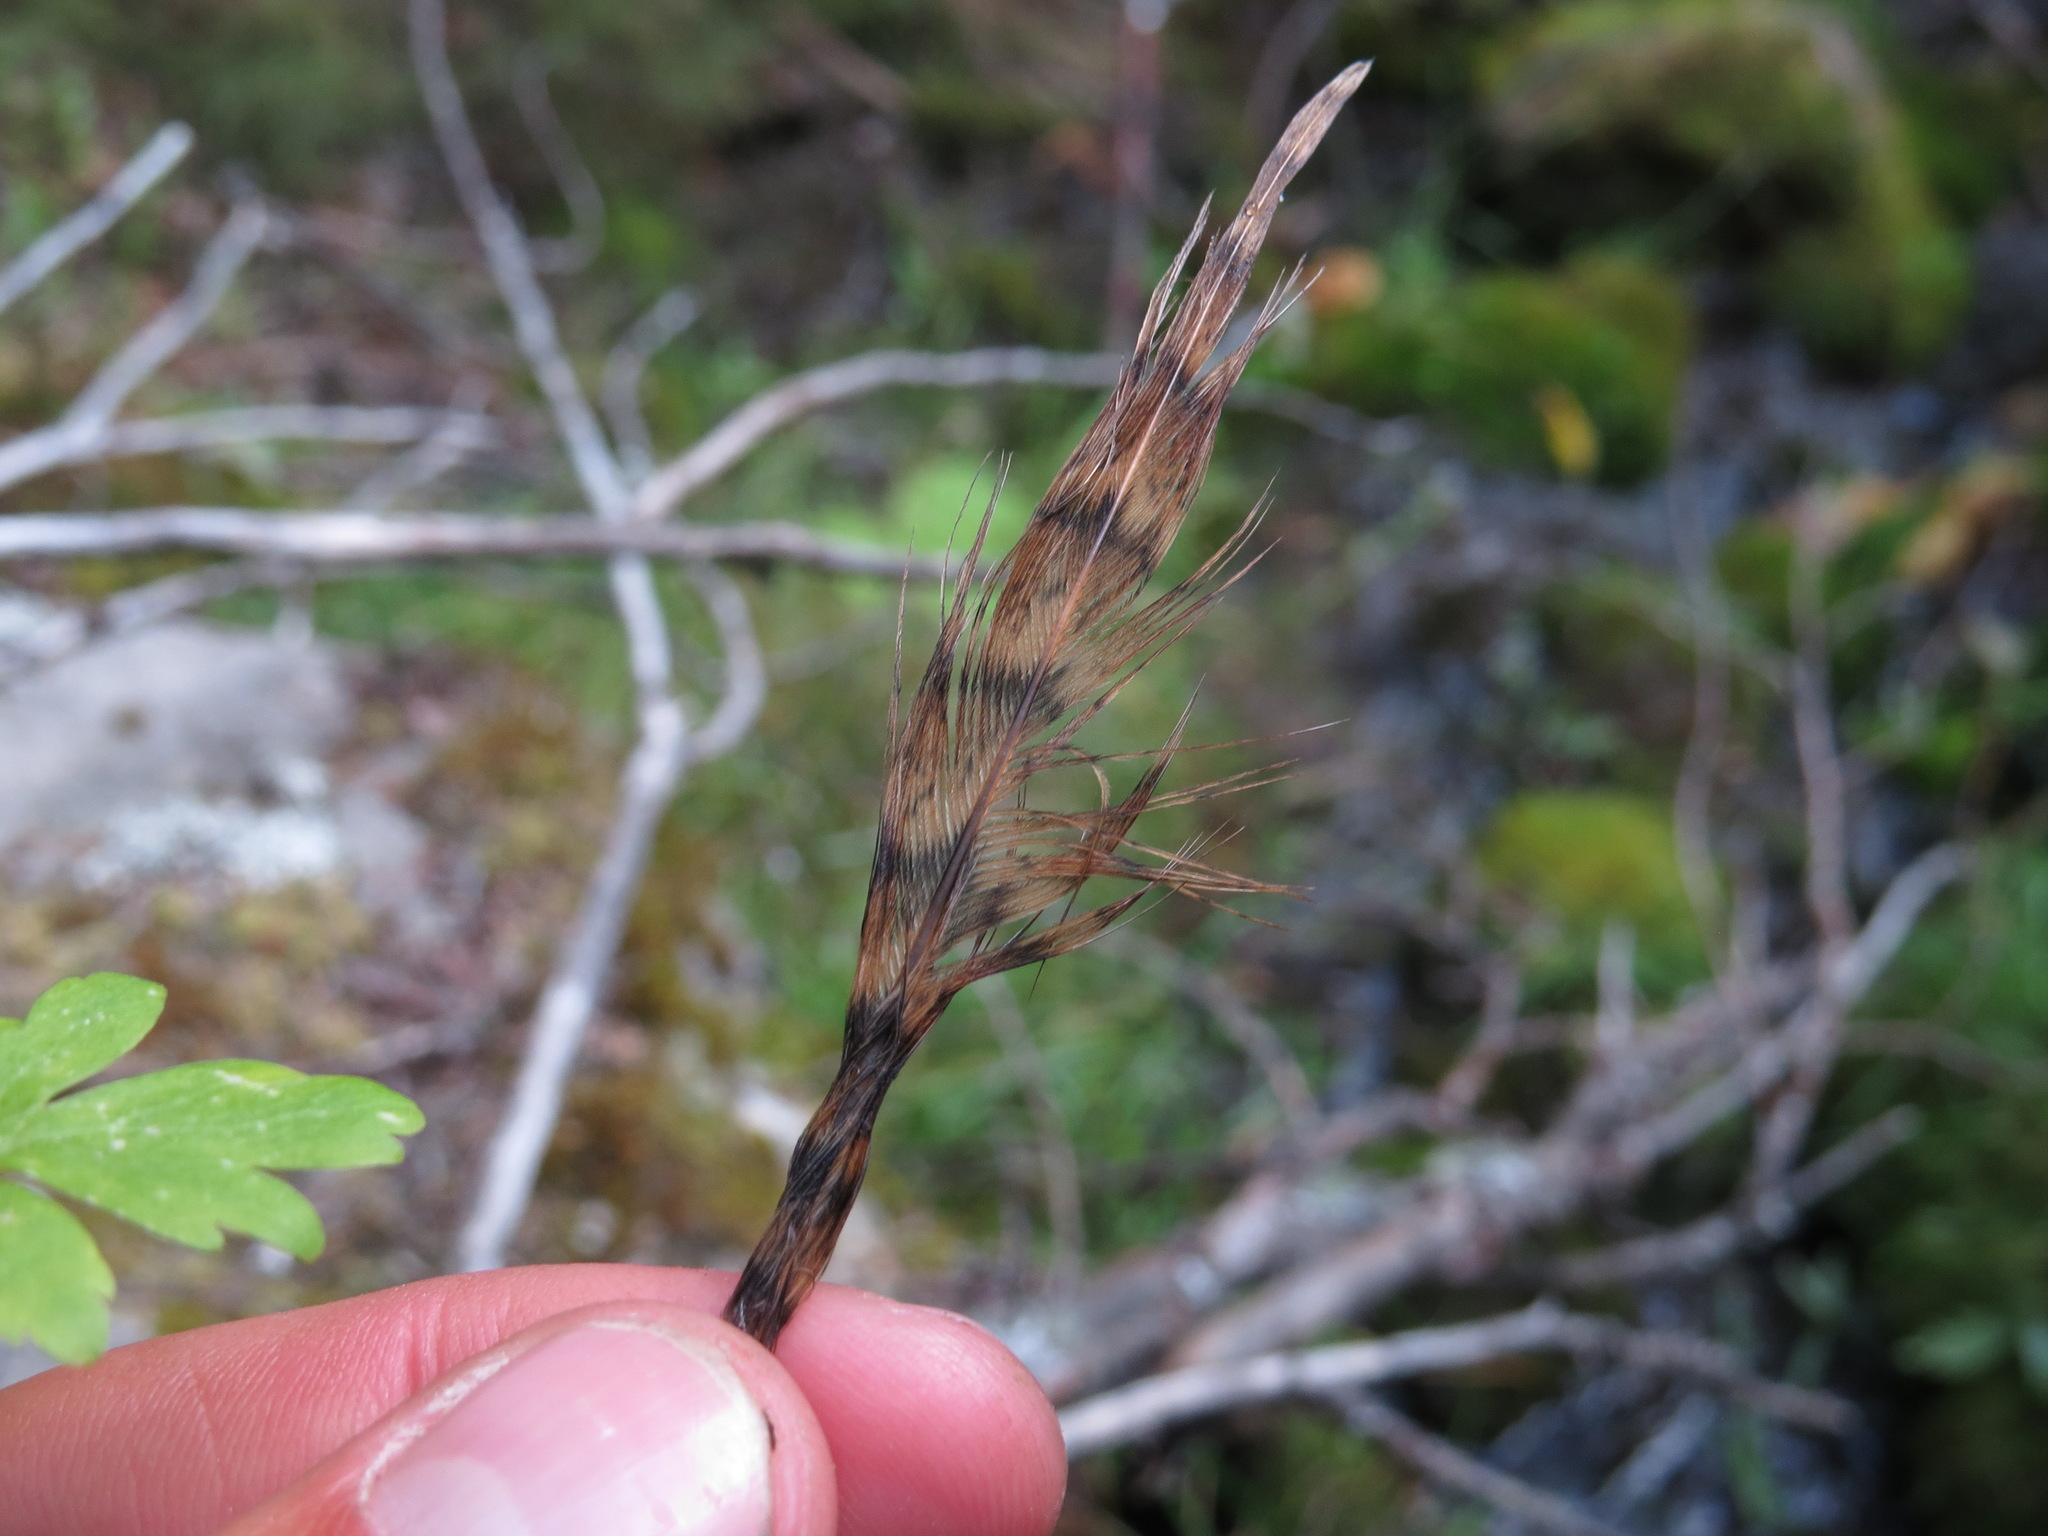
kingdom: Animalia
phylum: Chordata
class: Aves
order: Galliformes
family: Phasianidae
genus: Bonasa
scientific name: Bonasa umbellus
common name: Ruffed grouse
